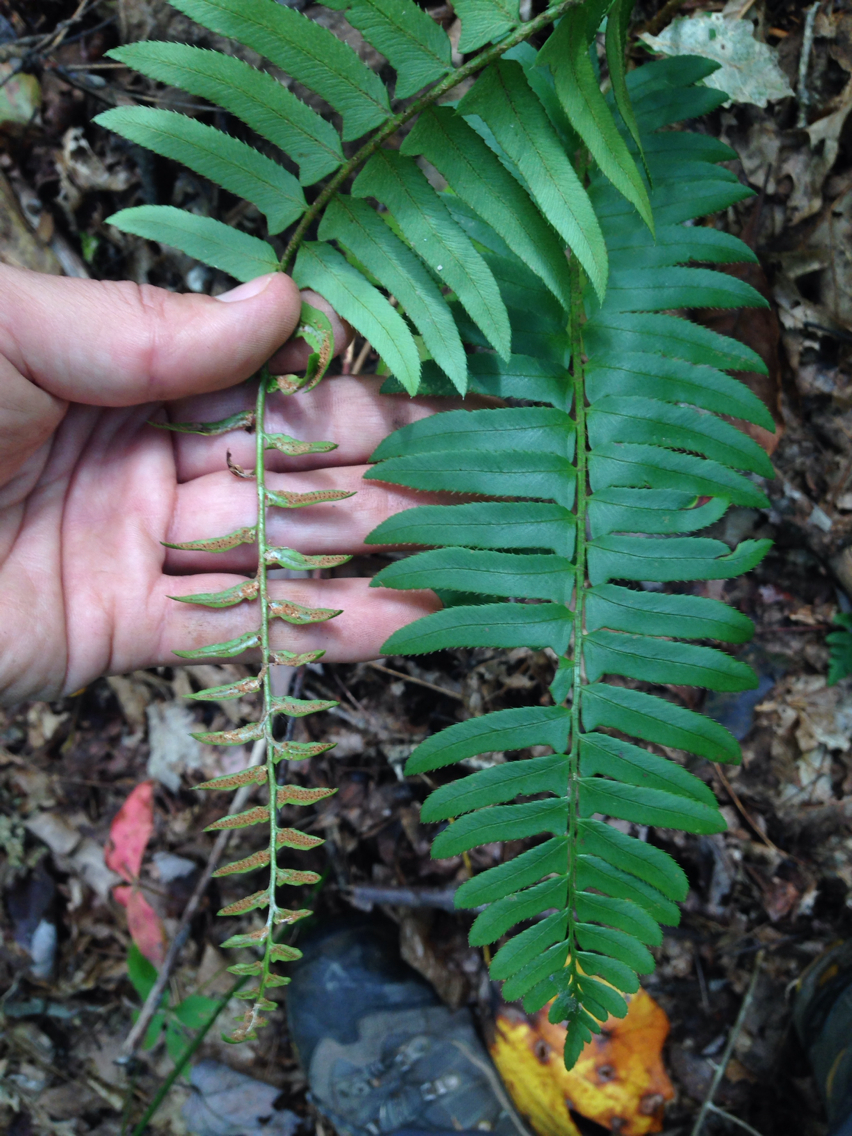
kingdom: Plantae
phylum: Tracheophyta
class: Polypodiopsida
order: Polypodiales
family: Dryopteridaceae
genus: Polystichum
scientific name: Polystichum acrostichoides
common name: Christmas fern
